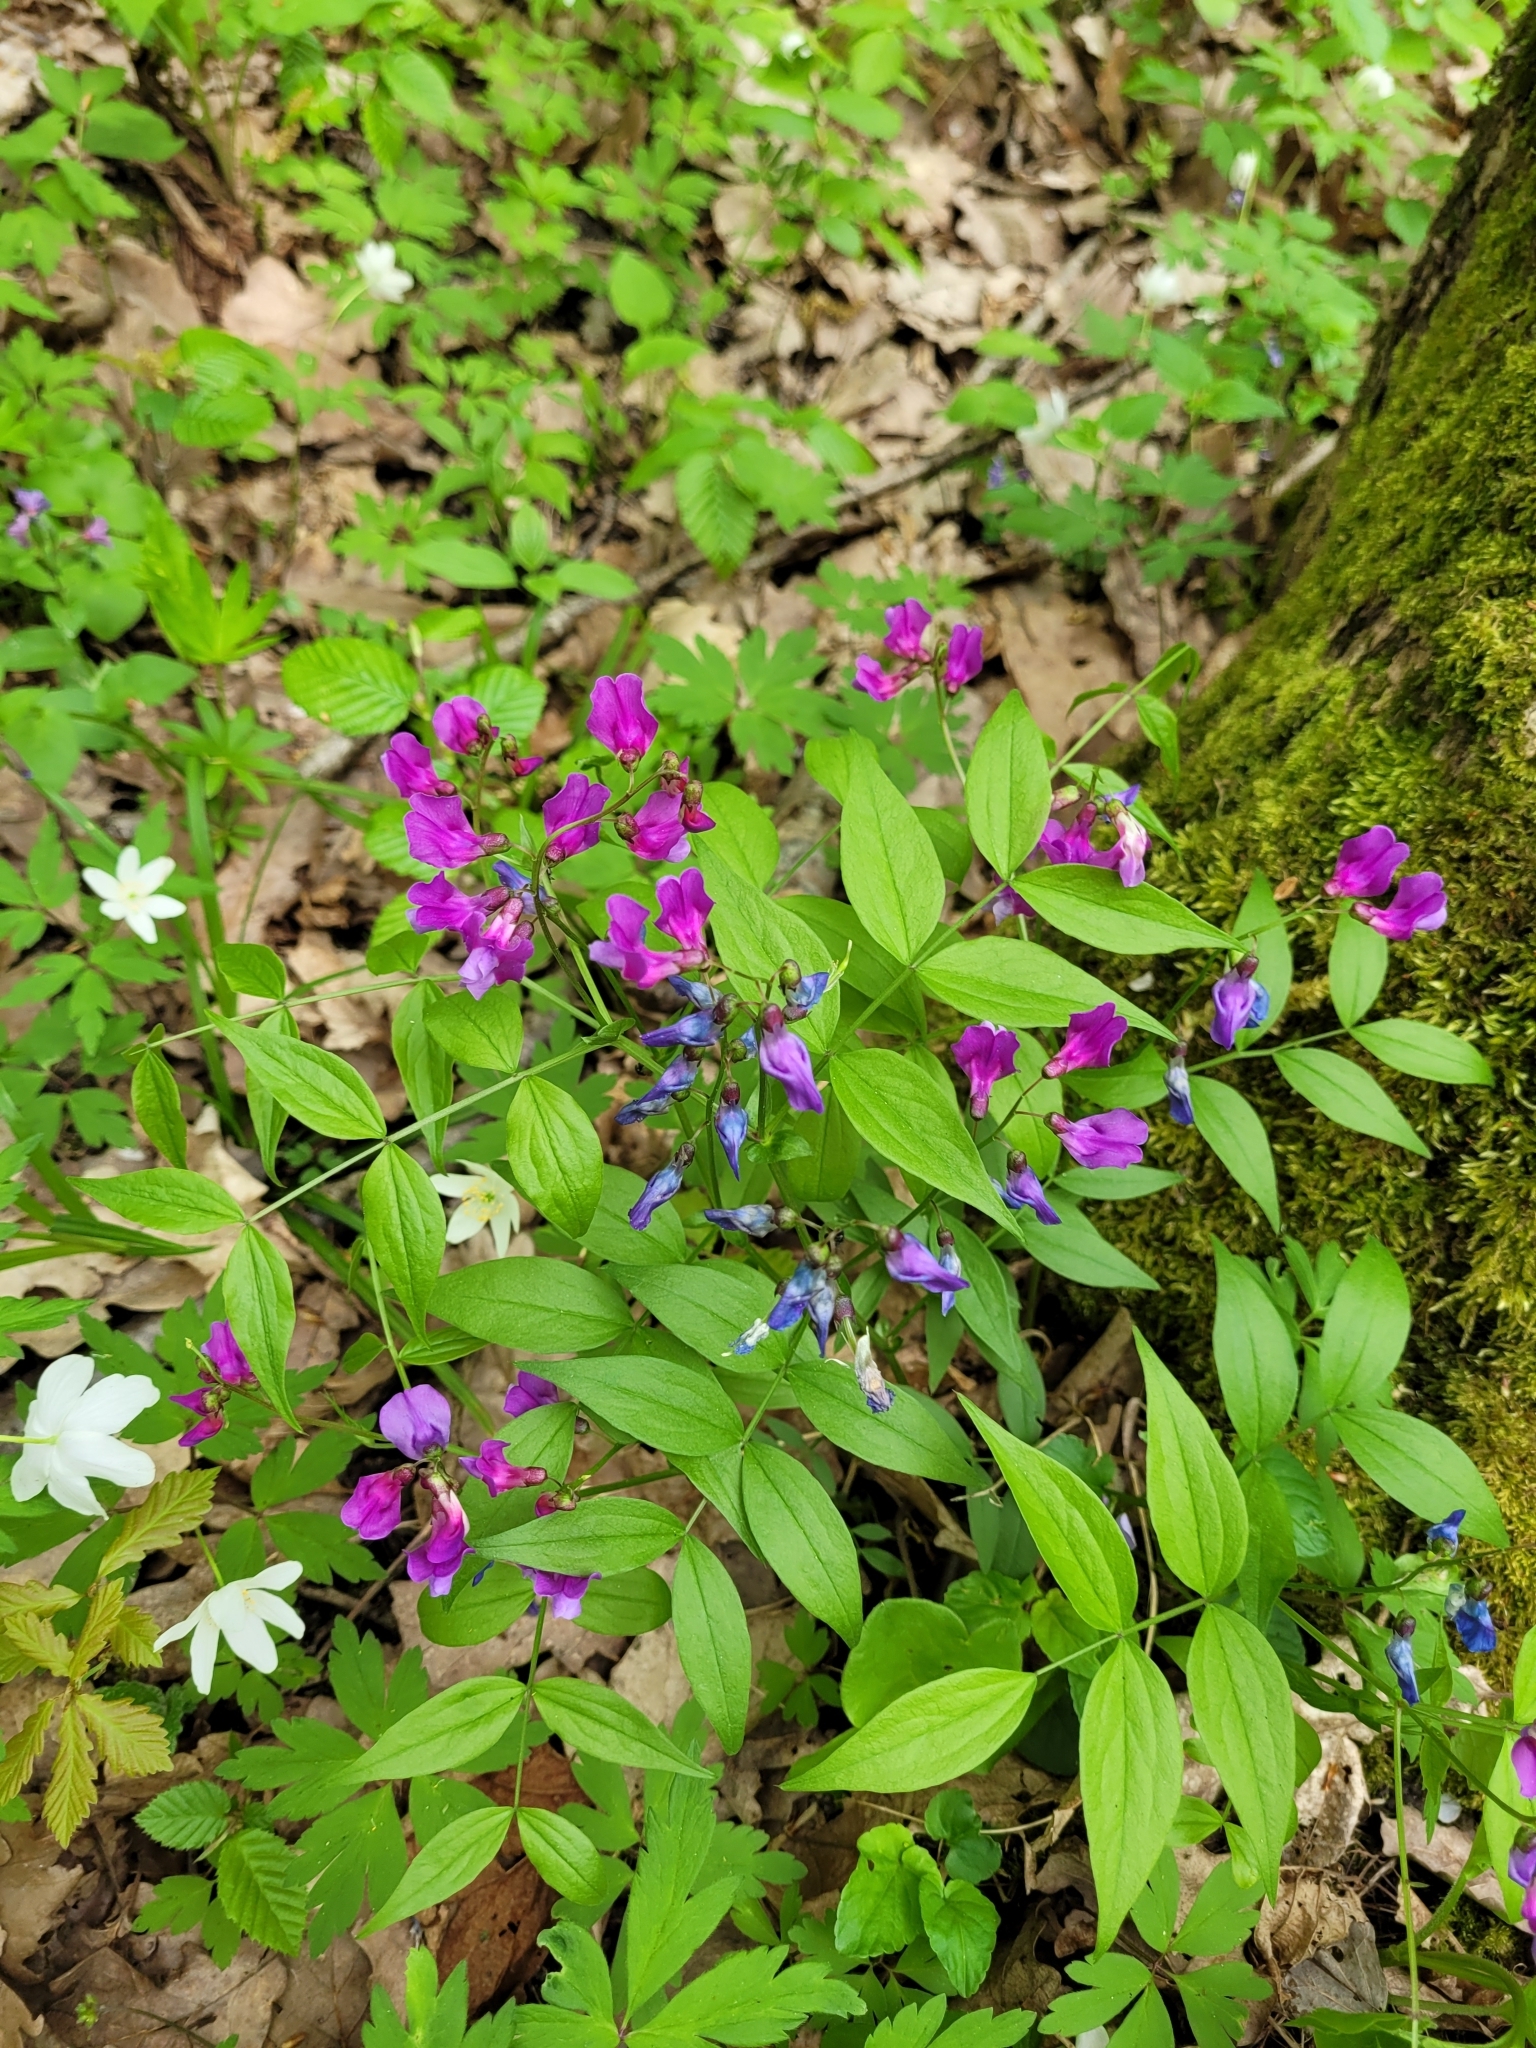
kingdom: Plantae
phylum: Tracheophyta
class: Magnoliopsida
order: Fabales
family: Fabaceae
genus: Lathyrus
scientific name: Lathyrus vernus
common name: Spring pea
